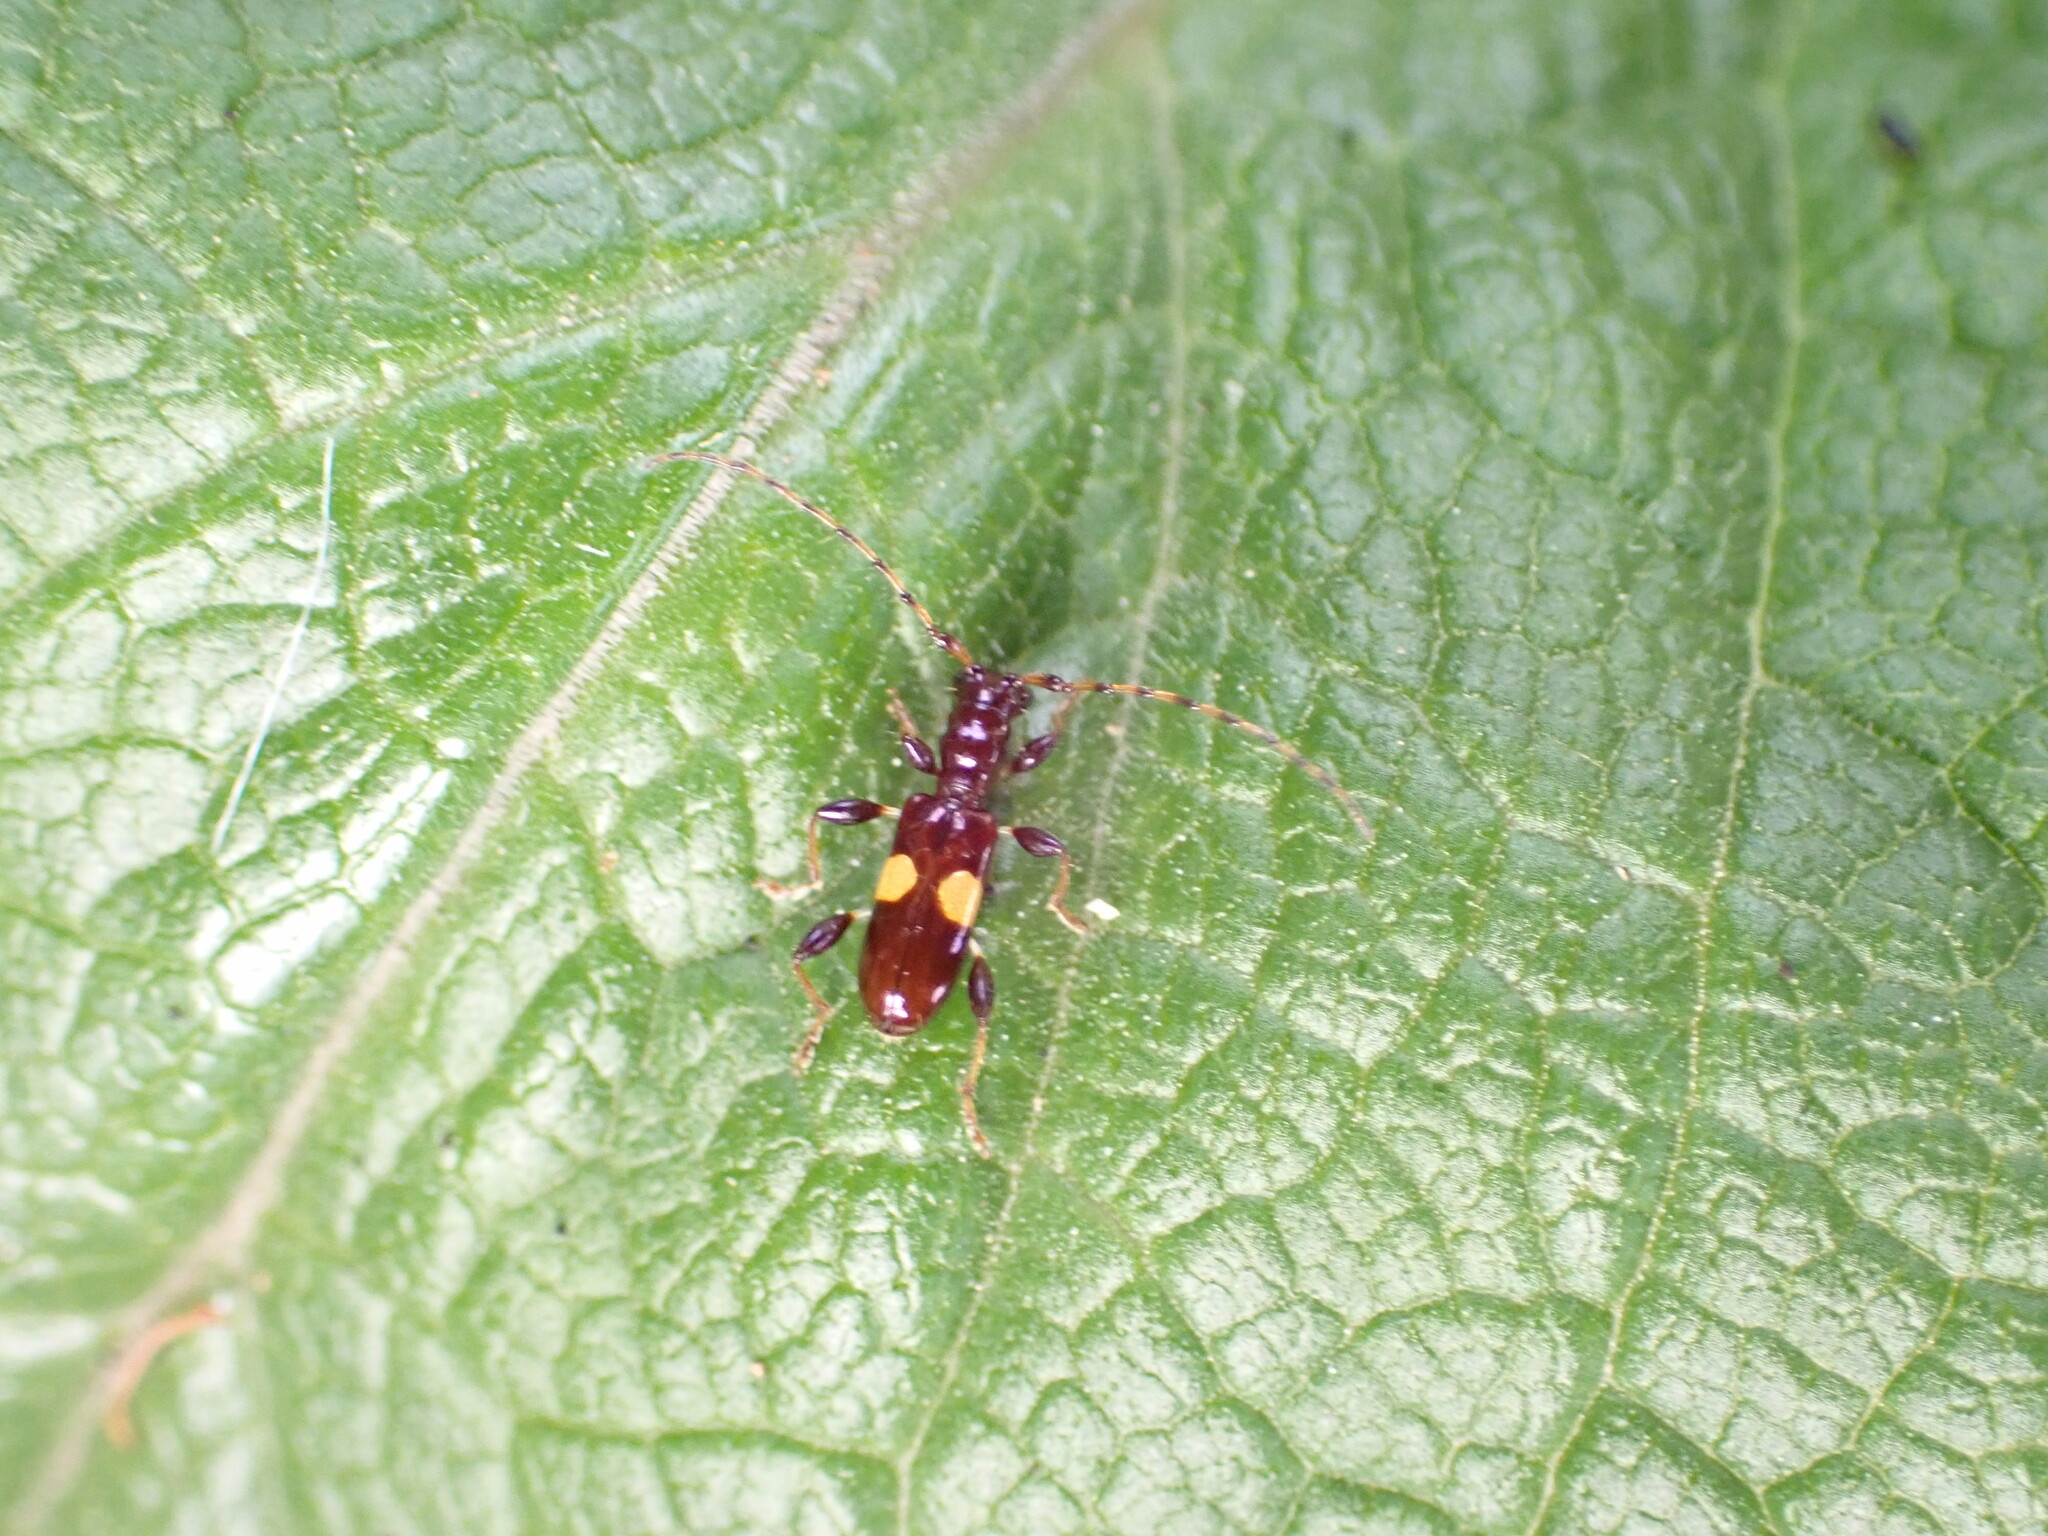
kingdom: Animalia
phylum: Arthropoda
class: Insecta
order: Coleoptera
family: Cerambycidae
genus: Zorion
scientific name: Zorion guttigerum
